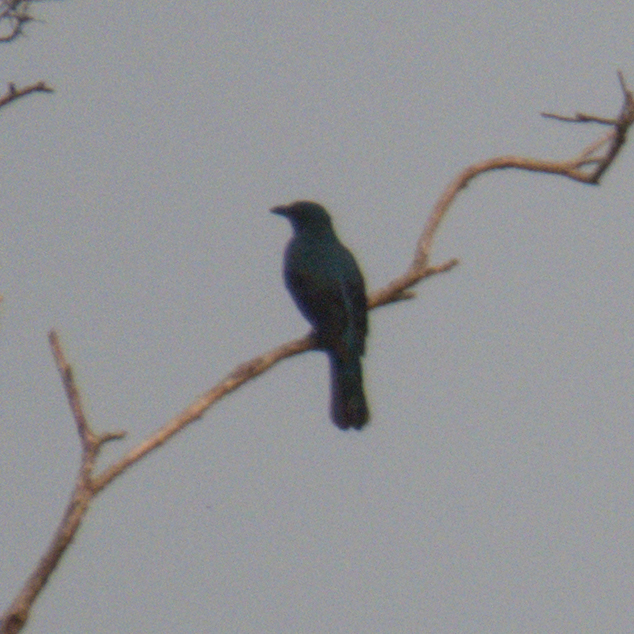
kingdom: Animalia
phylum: Chordata
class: Aves
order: Passeriformes
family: Irenidae
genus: Irena
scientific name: Irena puella
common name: Asian fairy-bluebird
